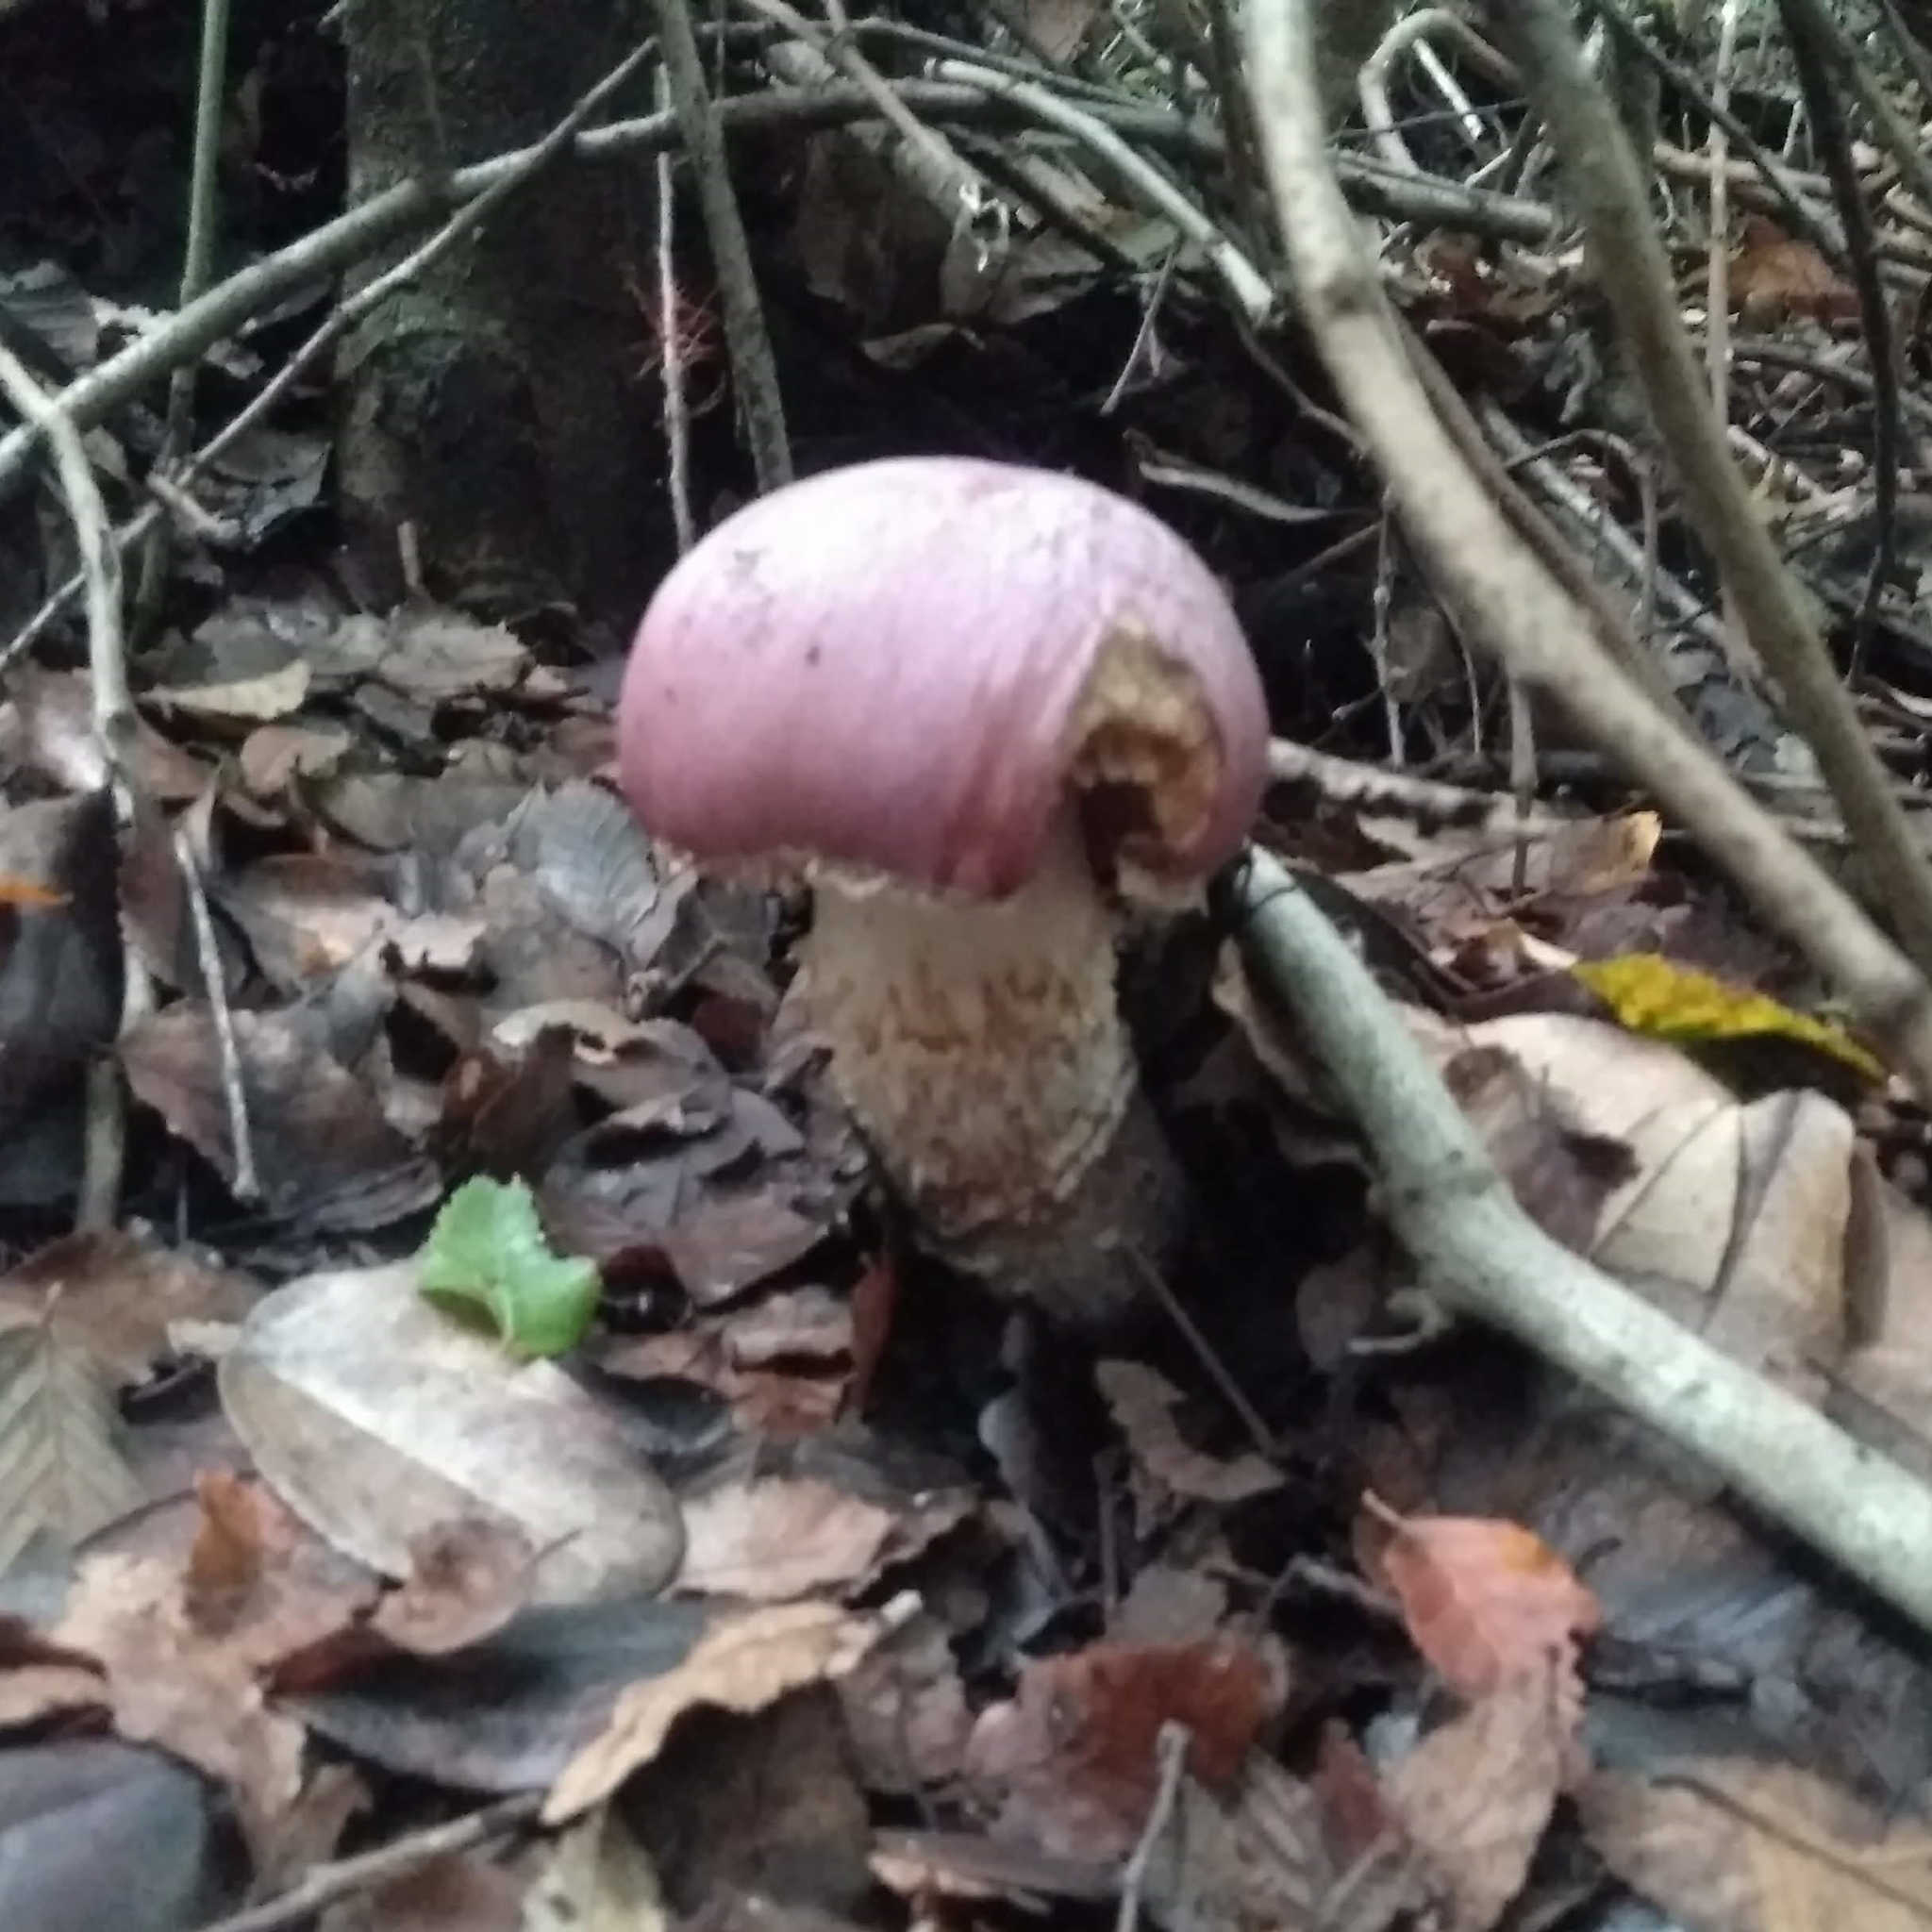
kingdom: Fungi
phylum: Basidiomycota
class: Agaricomycetes
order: Agaricales
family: Cortinariaceae
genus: Cortinarius
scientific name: Cortinarius lebre
